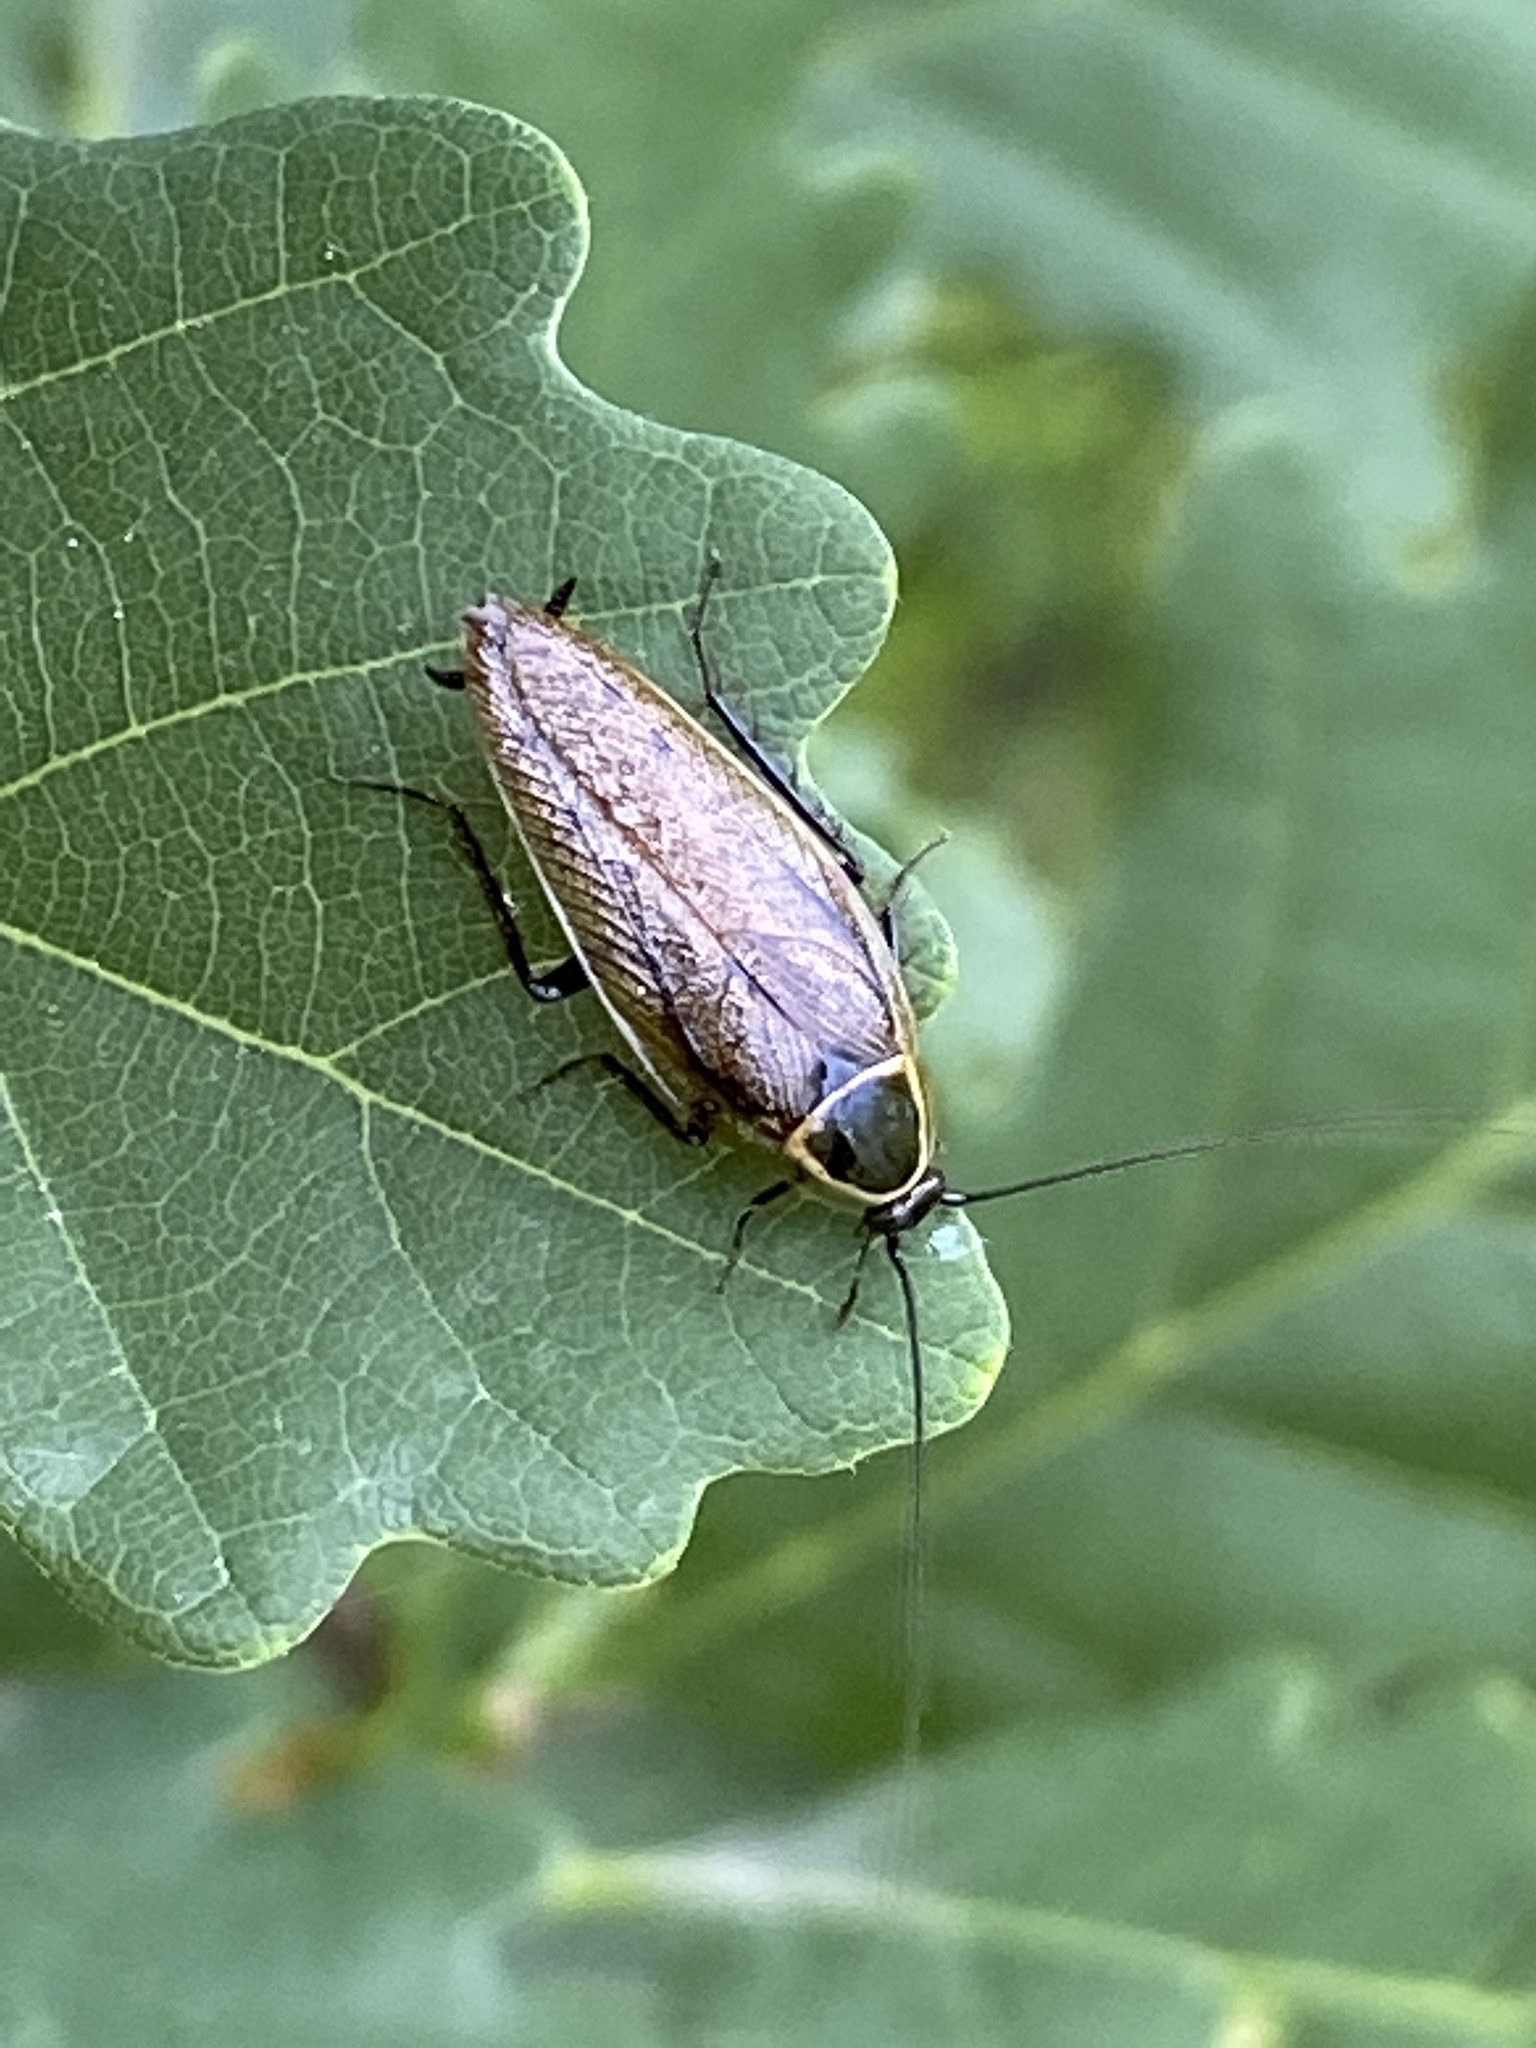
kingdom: Animalia
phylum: Arthropoda
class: Insecta
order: Blattodea
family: Ectobiidae
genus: Ectobius
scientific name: Ectobius sylvestris
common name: Forest cockroach
